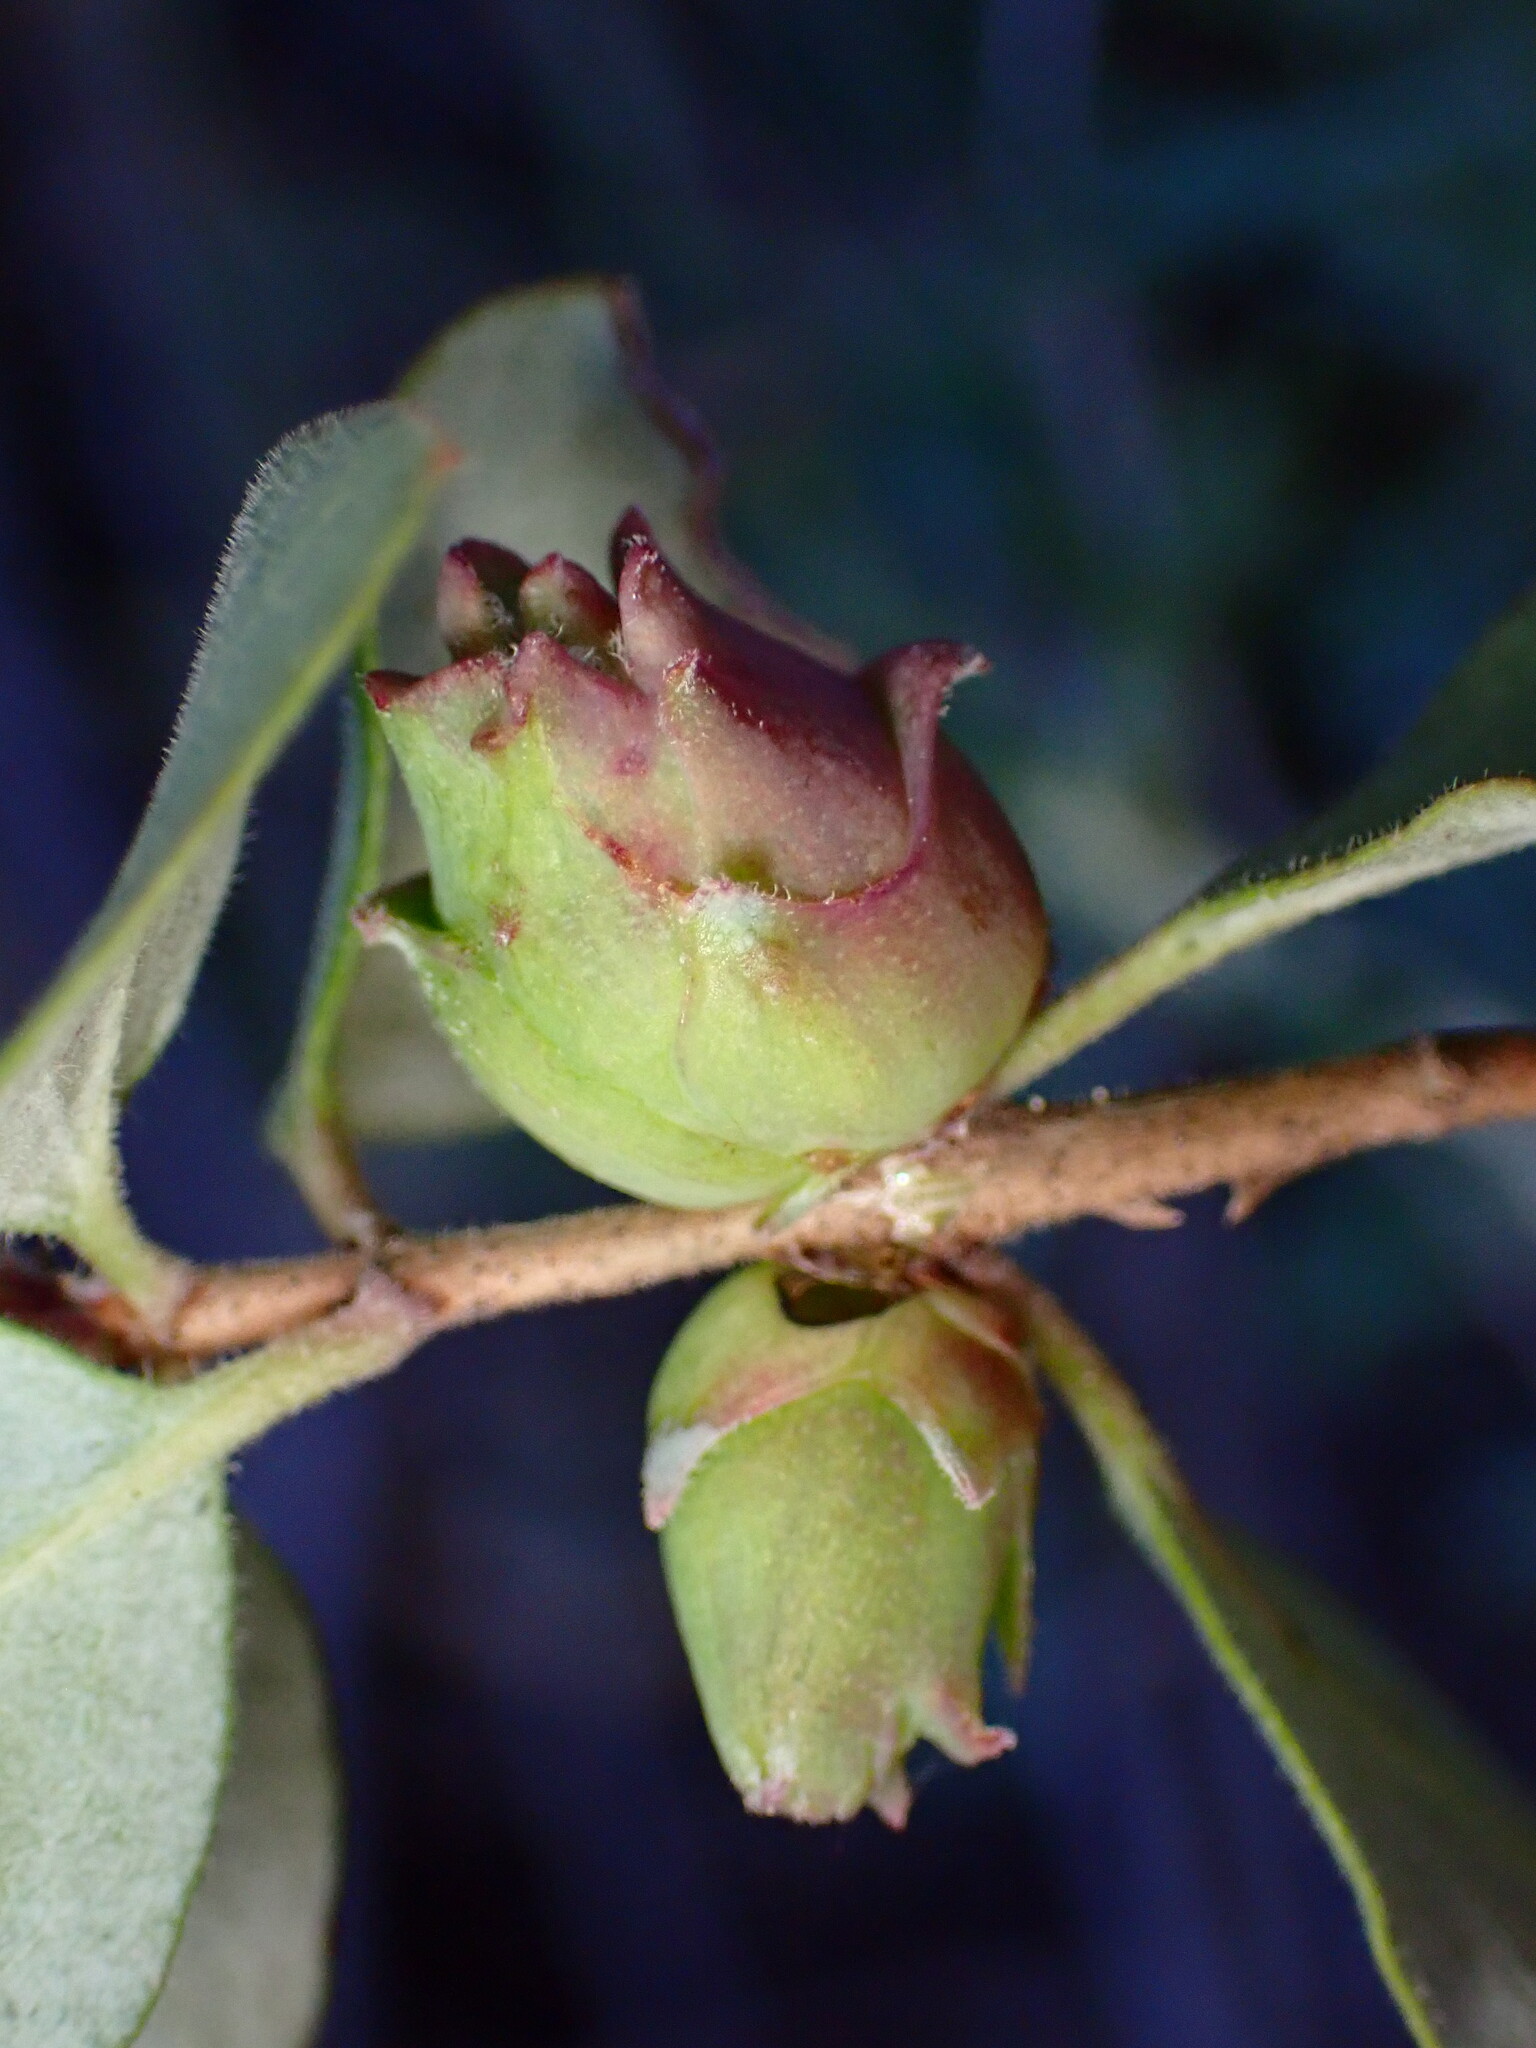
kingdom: Animalia
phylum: Arthropoda
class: Insecta
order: Diptera
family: Cecidomyiidae
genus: Lonicerae
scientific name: Lonicerae
